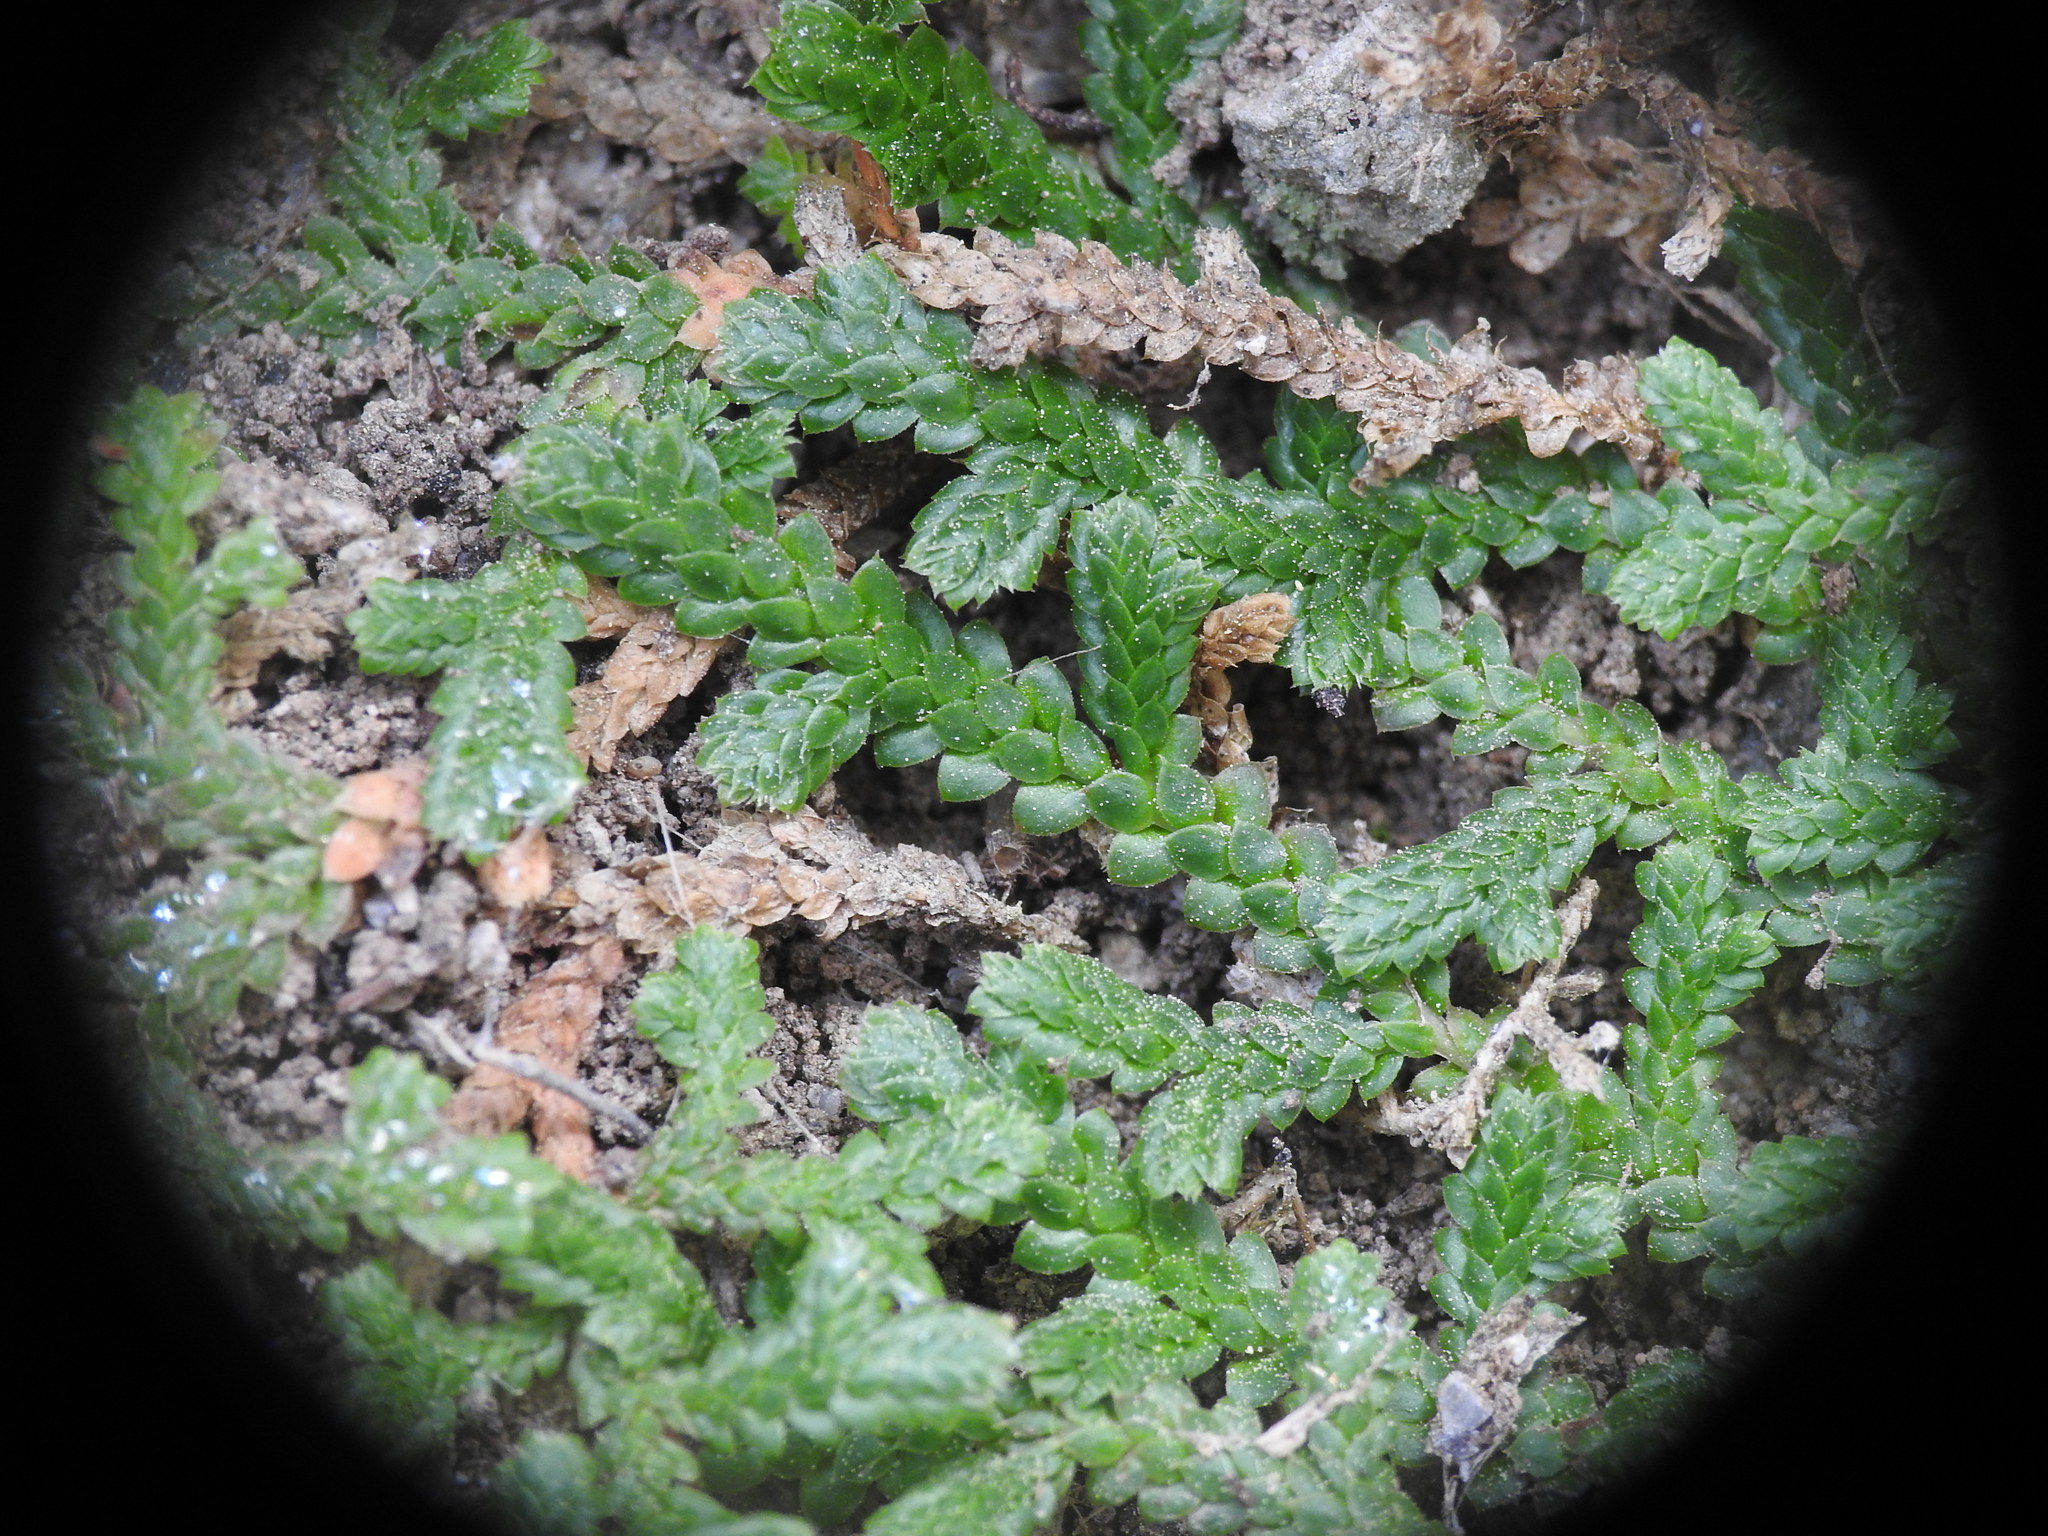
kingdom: Plantae
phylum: Tracheophyta
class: Lycopodiopsida
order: Selaginellales
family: Selaginellaceae
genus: Selaginella
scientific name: Selaginella denticulata
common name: Toothed-leaved clubmoss
